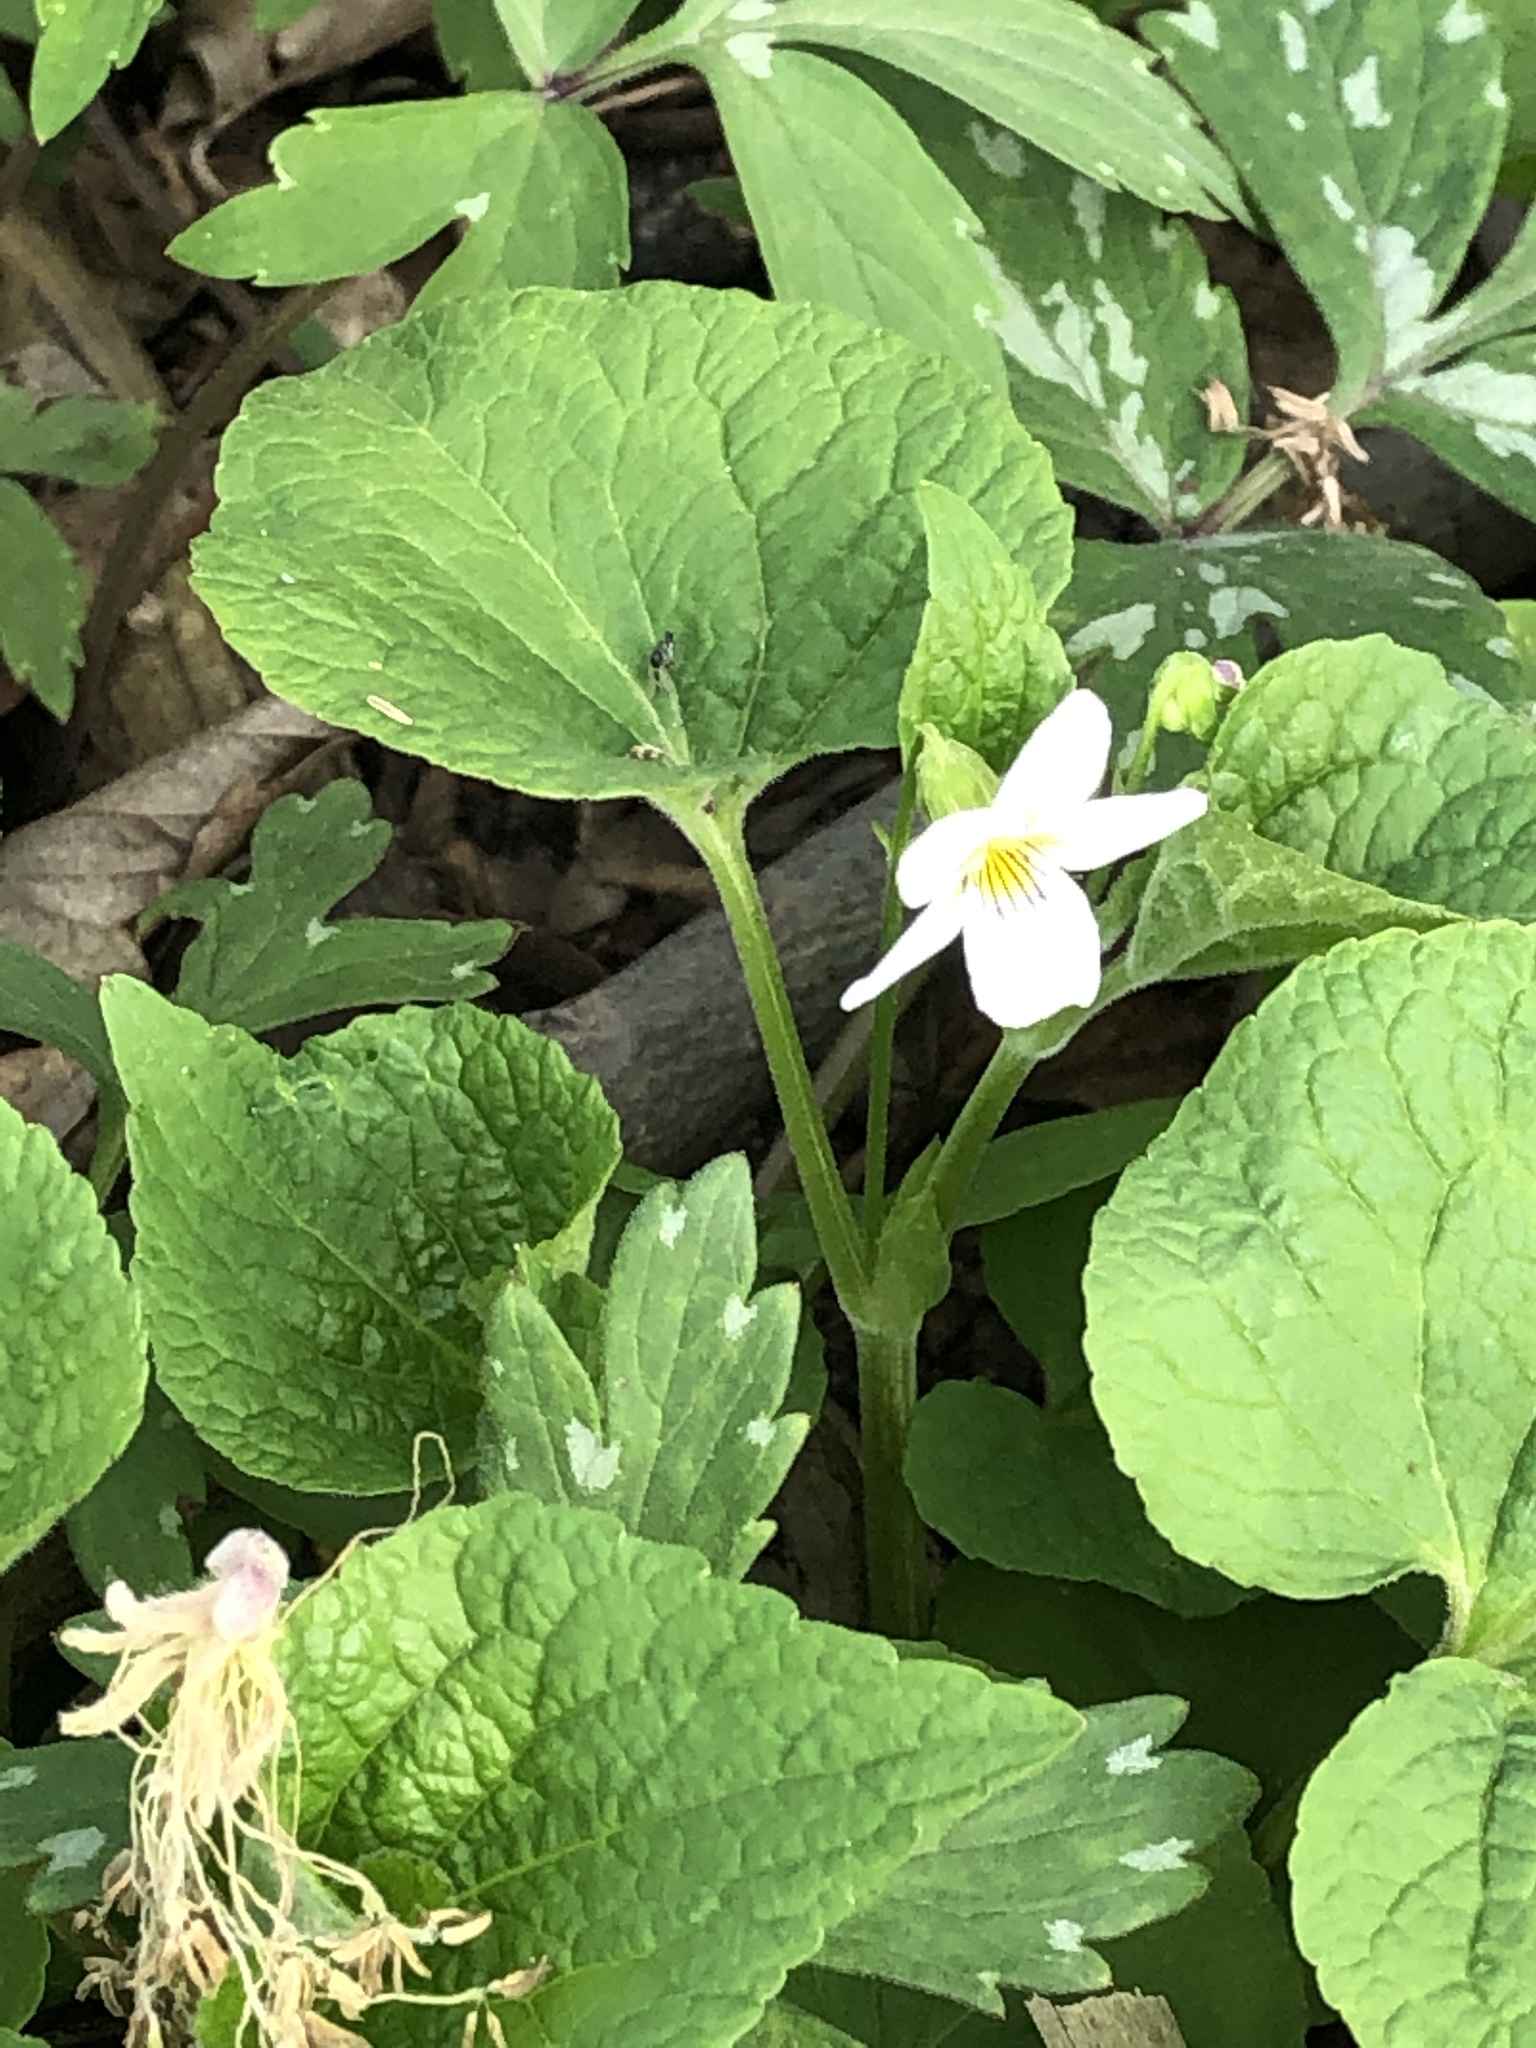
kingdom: Plantae
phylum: Tracheophyta
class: Magnoliopsida
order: Malpighiales
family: Violaceae
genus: Viola
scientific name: Viola canadensis
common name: Canada violet
